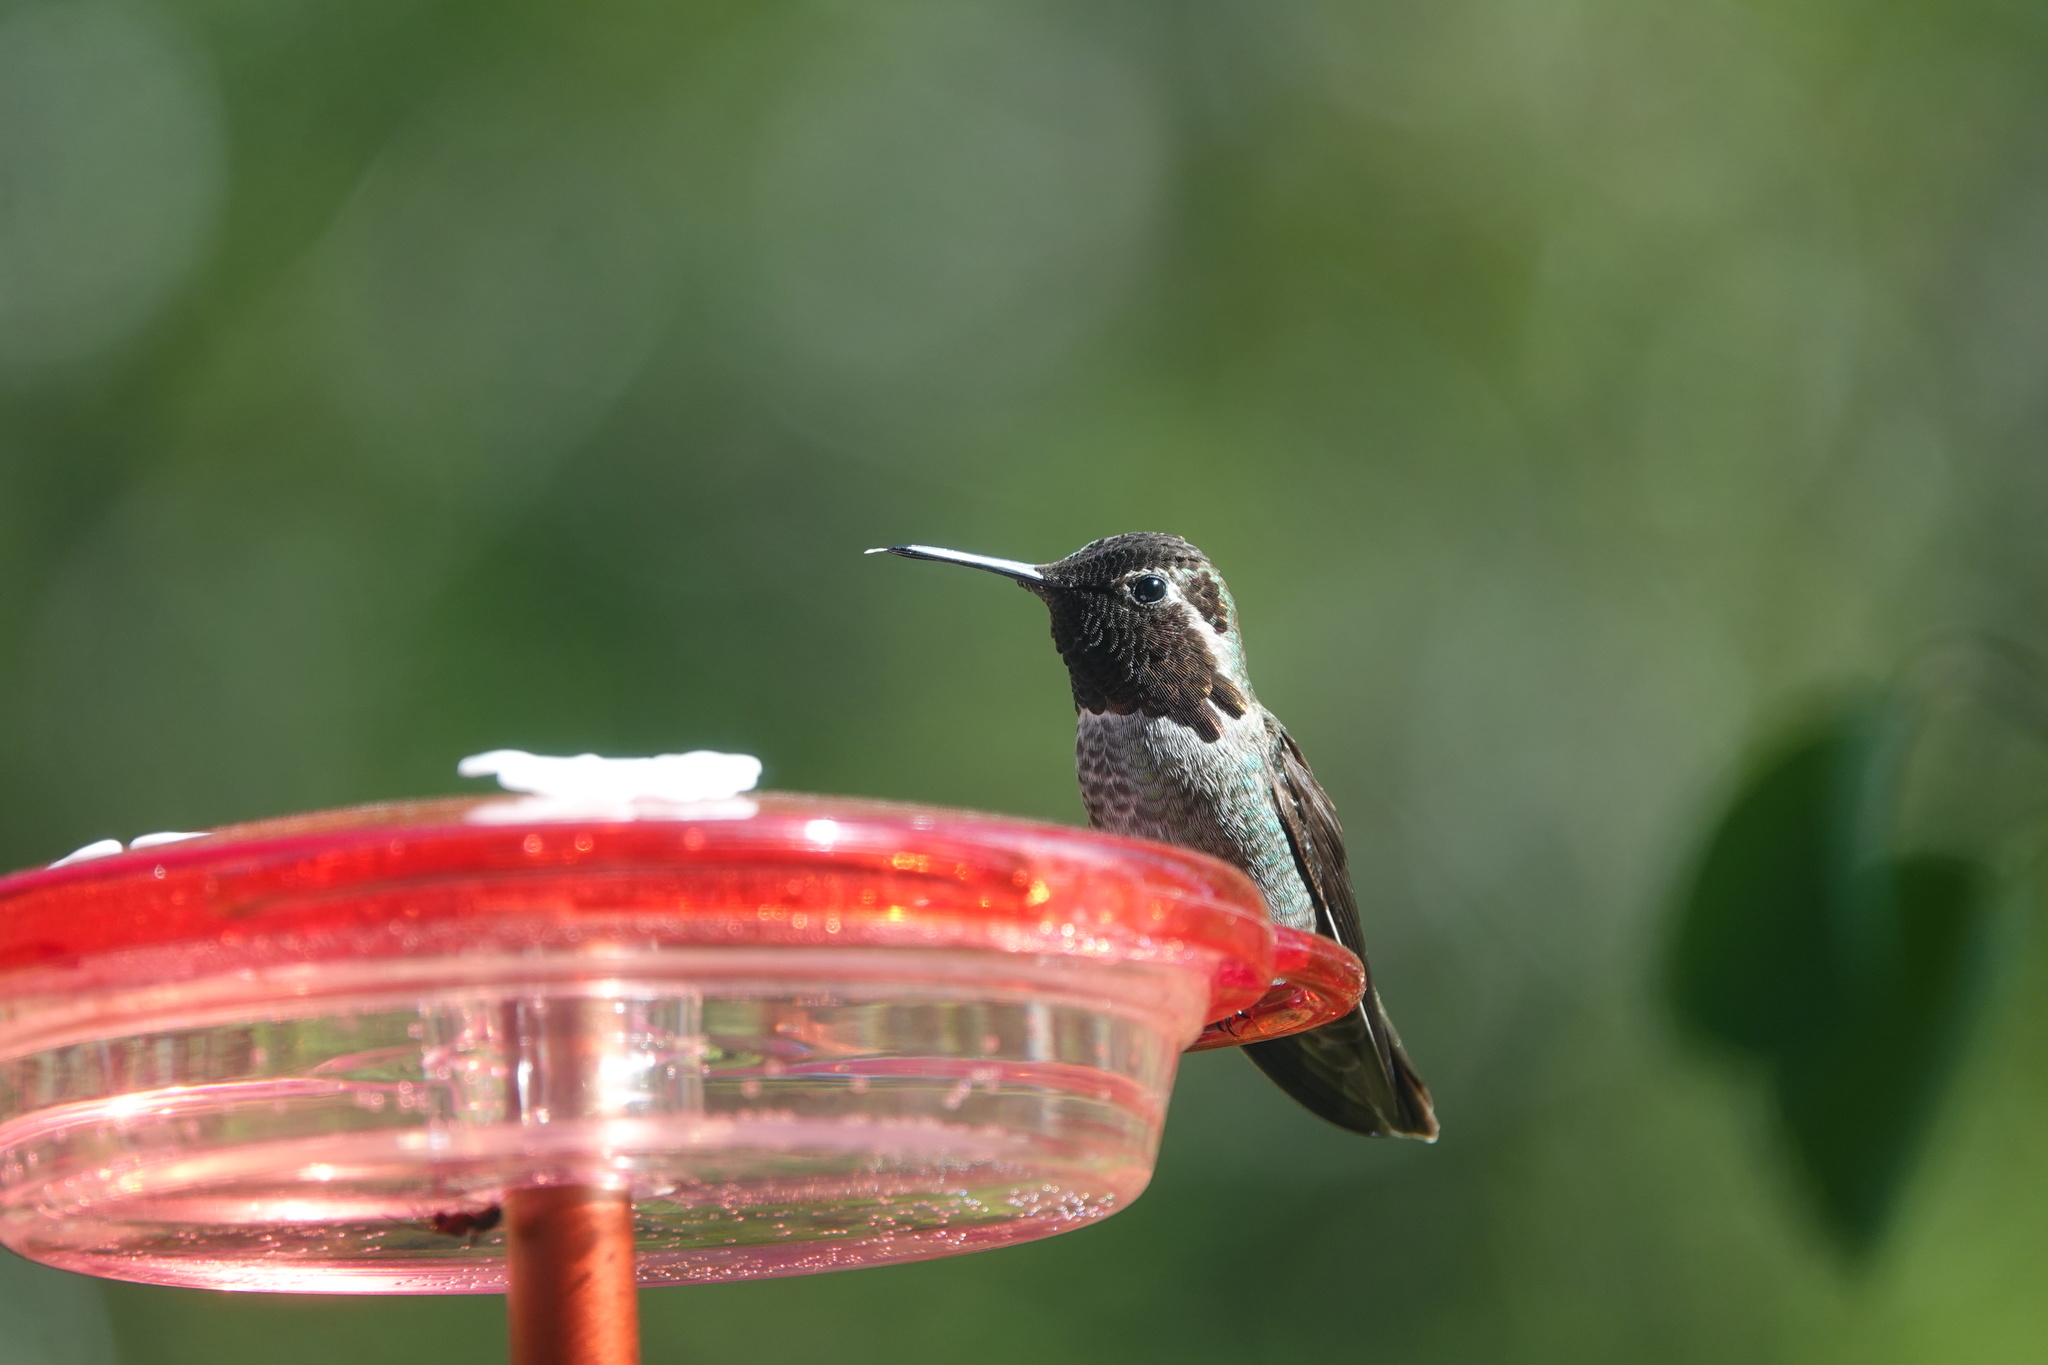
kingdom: Animalia
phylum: Chordata
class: Aves
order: Apodiformes
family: Trochilidae
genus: Calypte
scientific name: Calypte anna
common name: Anna's hummingbird
